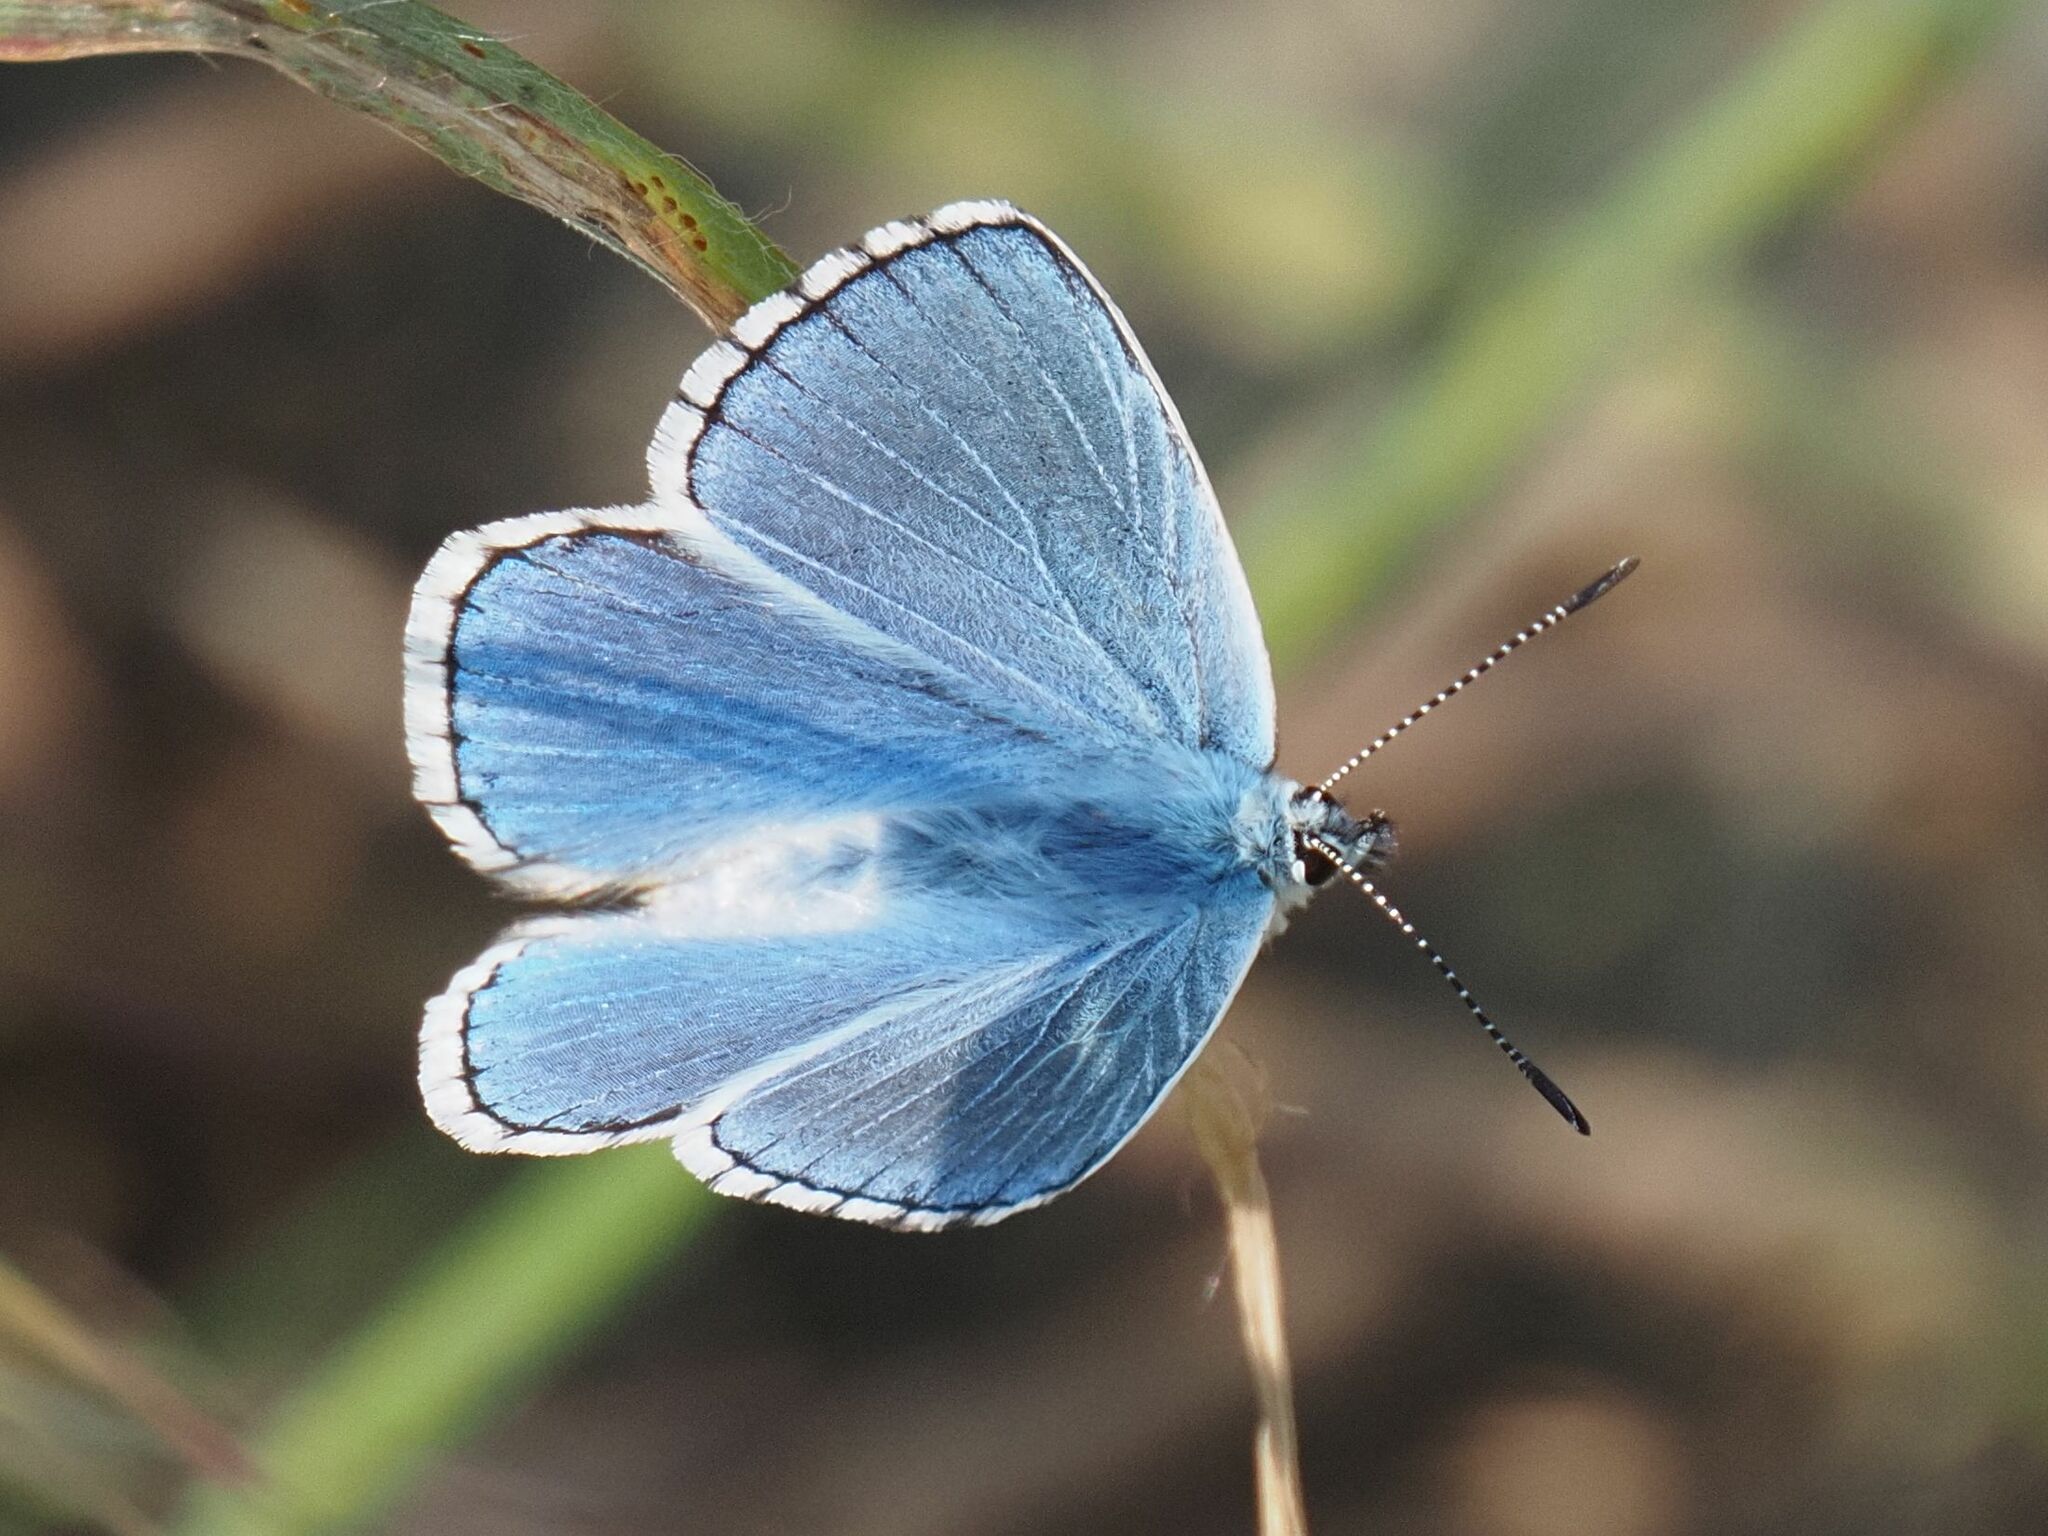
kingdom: Animalia
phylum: Arthropoda
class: Insecta
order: Lepidoptera
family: Lycaenidae
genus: Lysandra
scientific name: Lysandra bellargus
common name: Adonis blue
